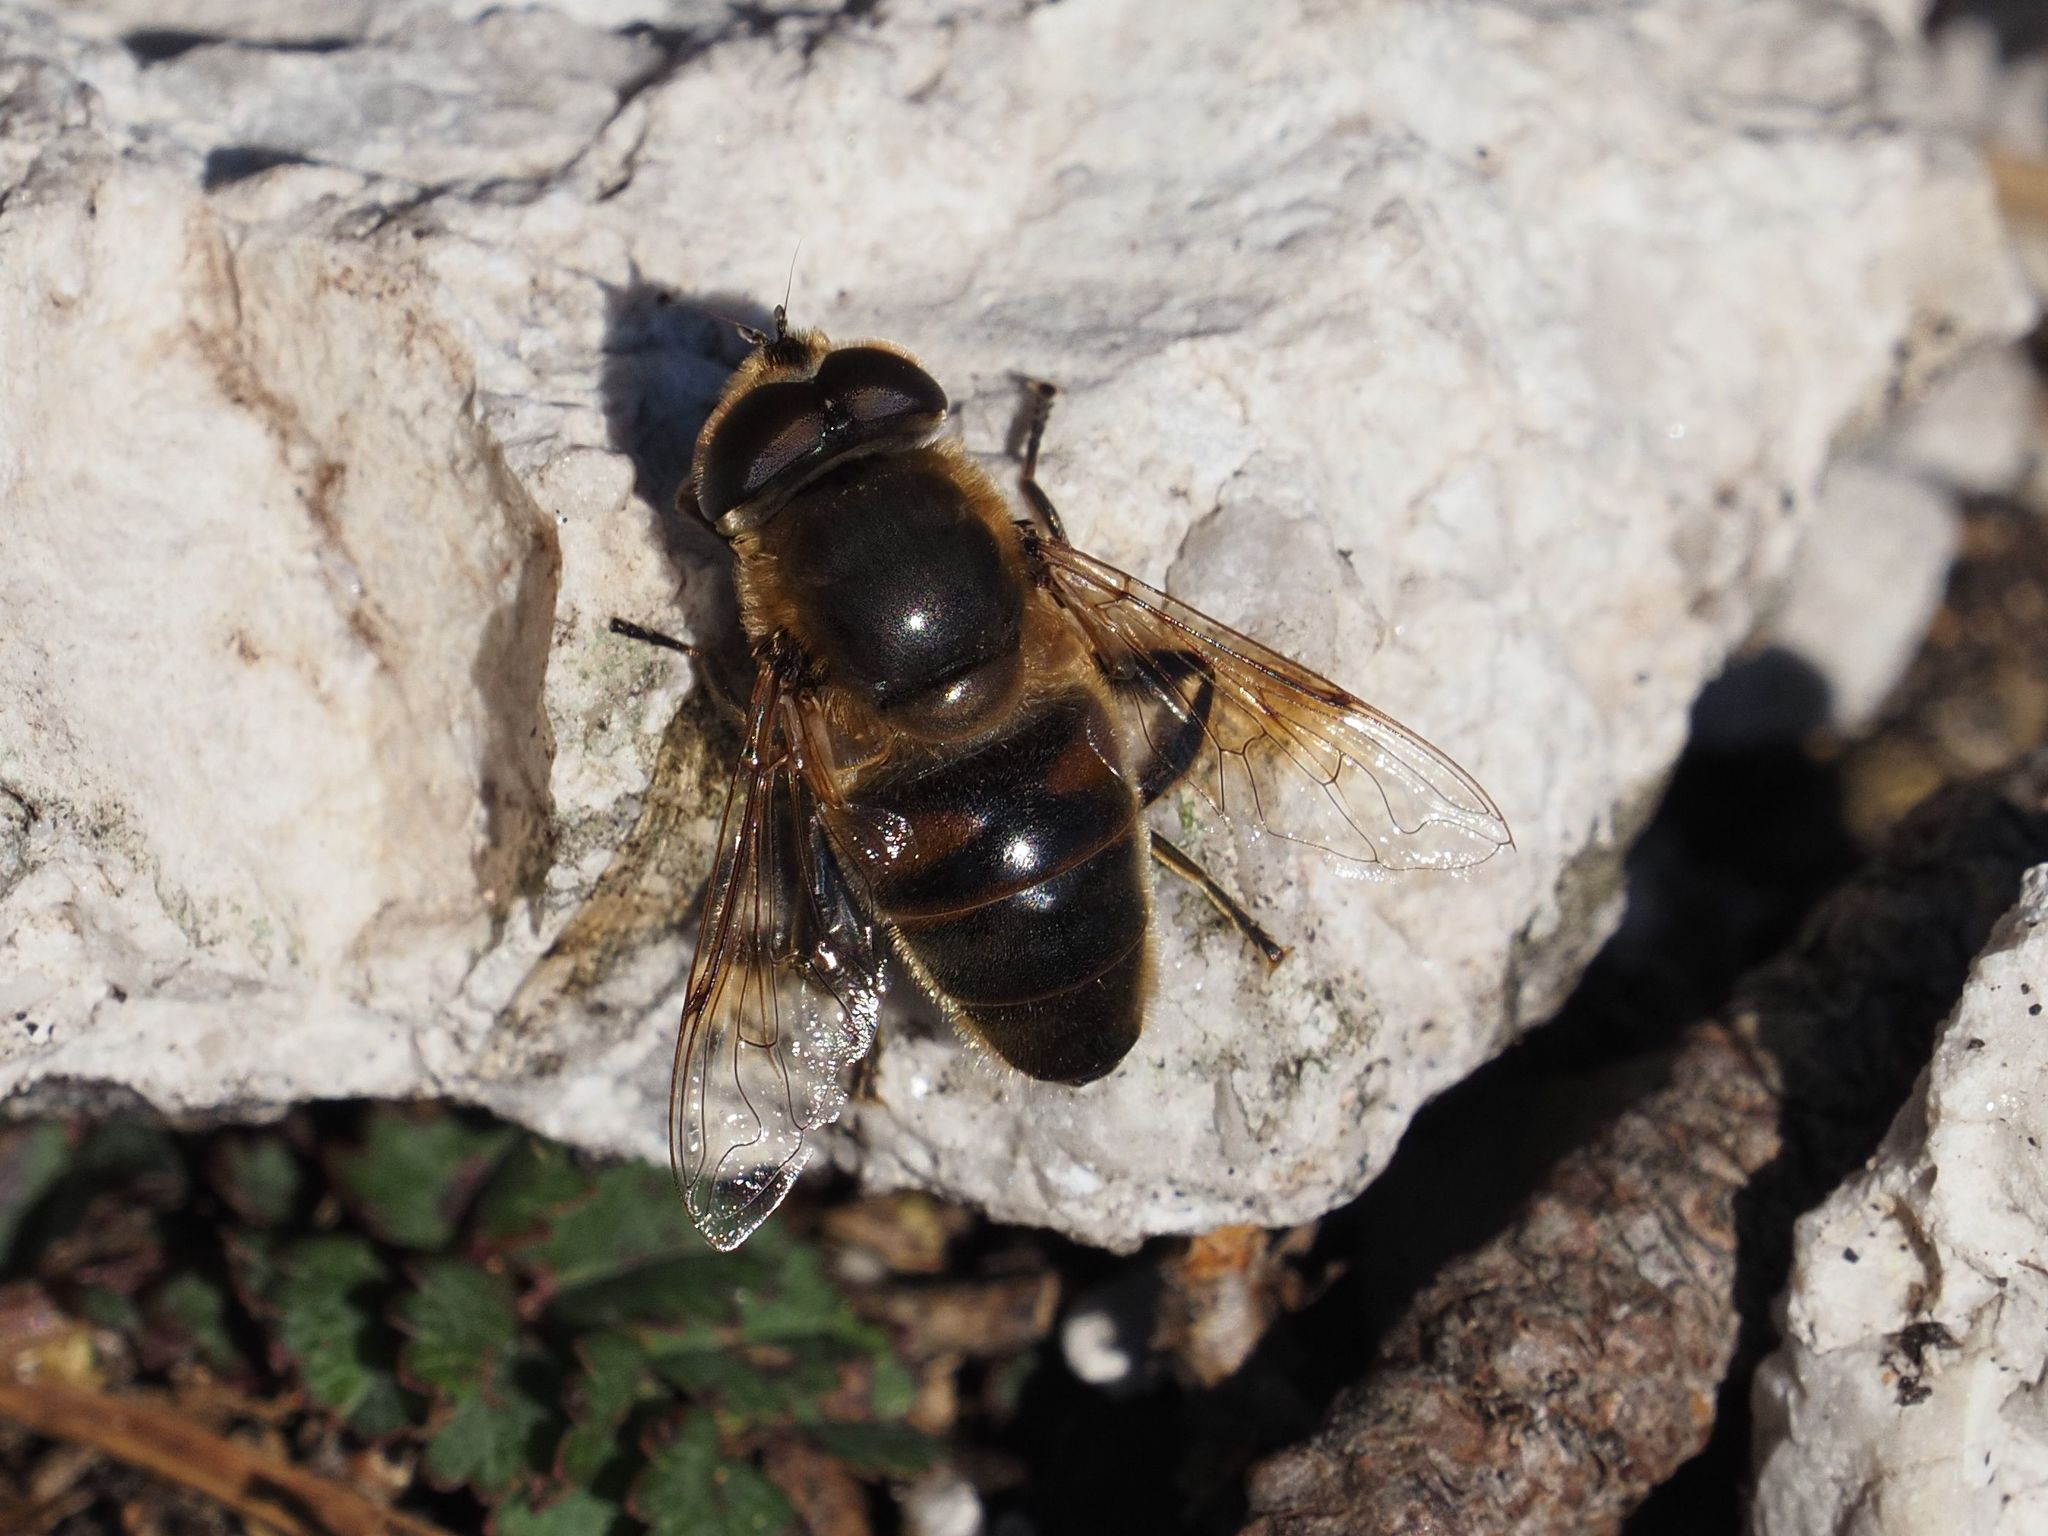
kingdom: Animalia
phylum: Arthropoda
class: Insecta
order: Diptera
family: Syrphidae
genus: Eristalis
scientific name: Eristalis tenax
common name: Drone fly
